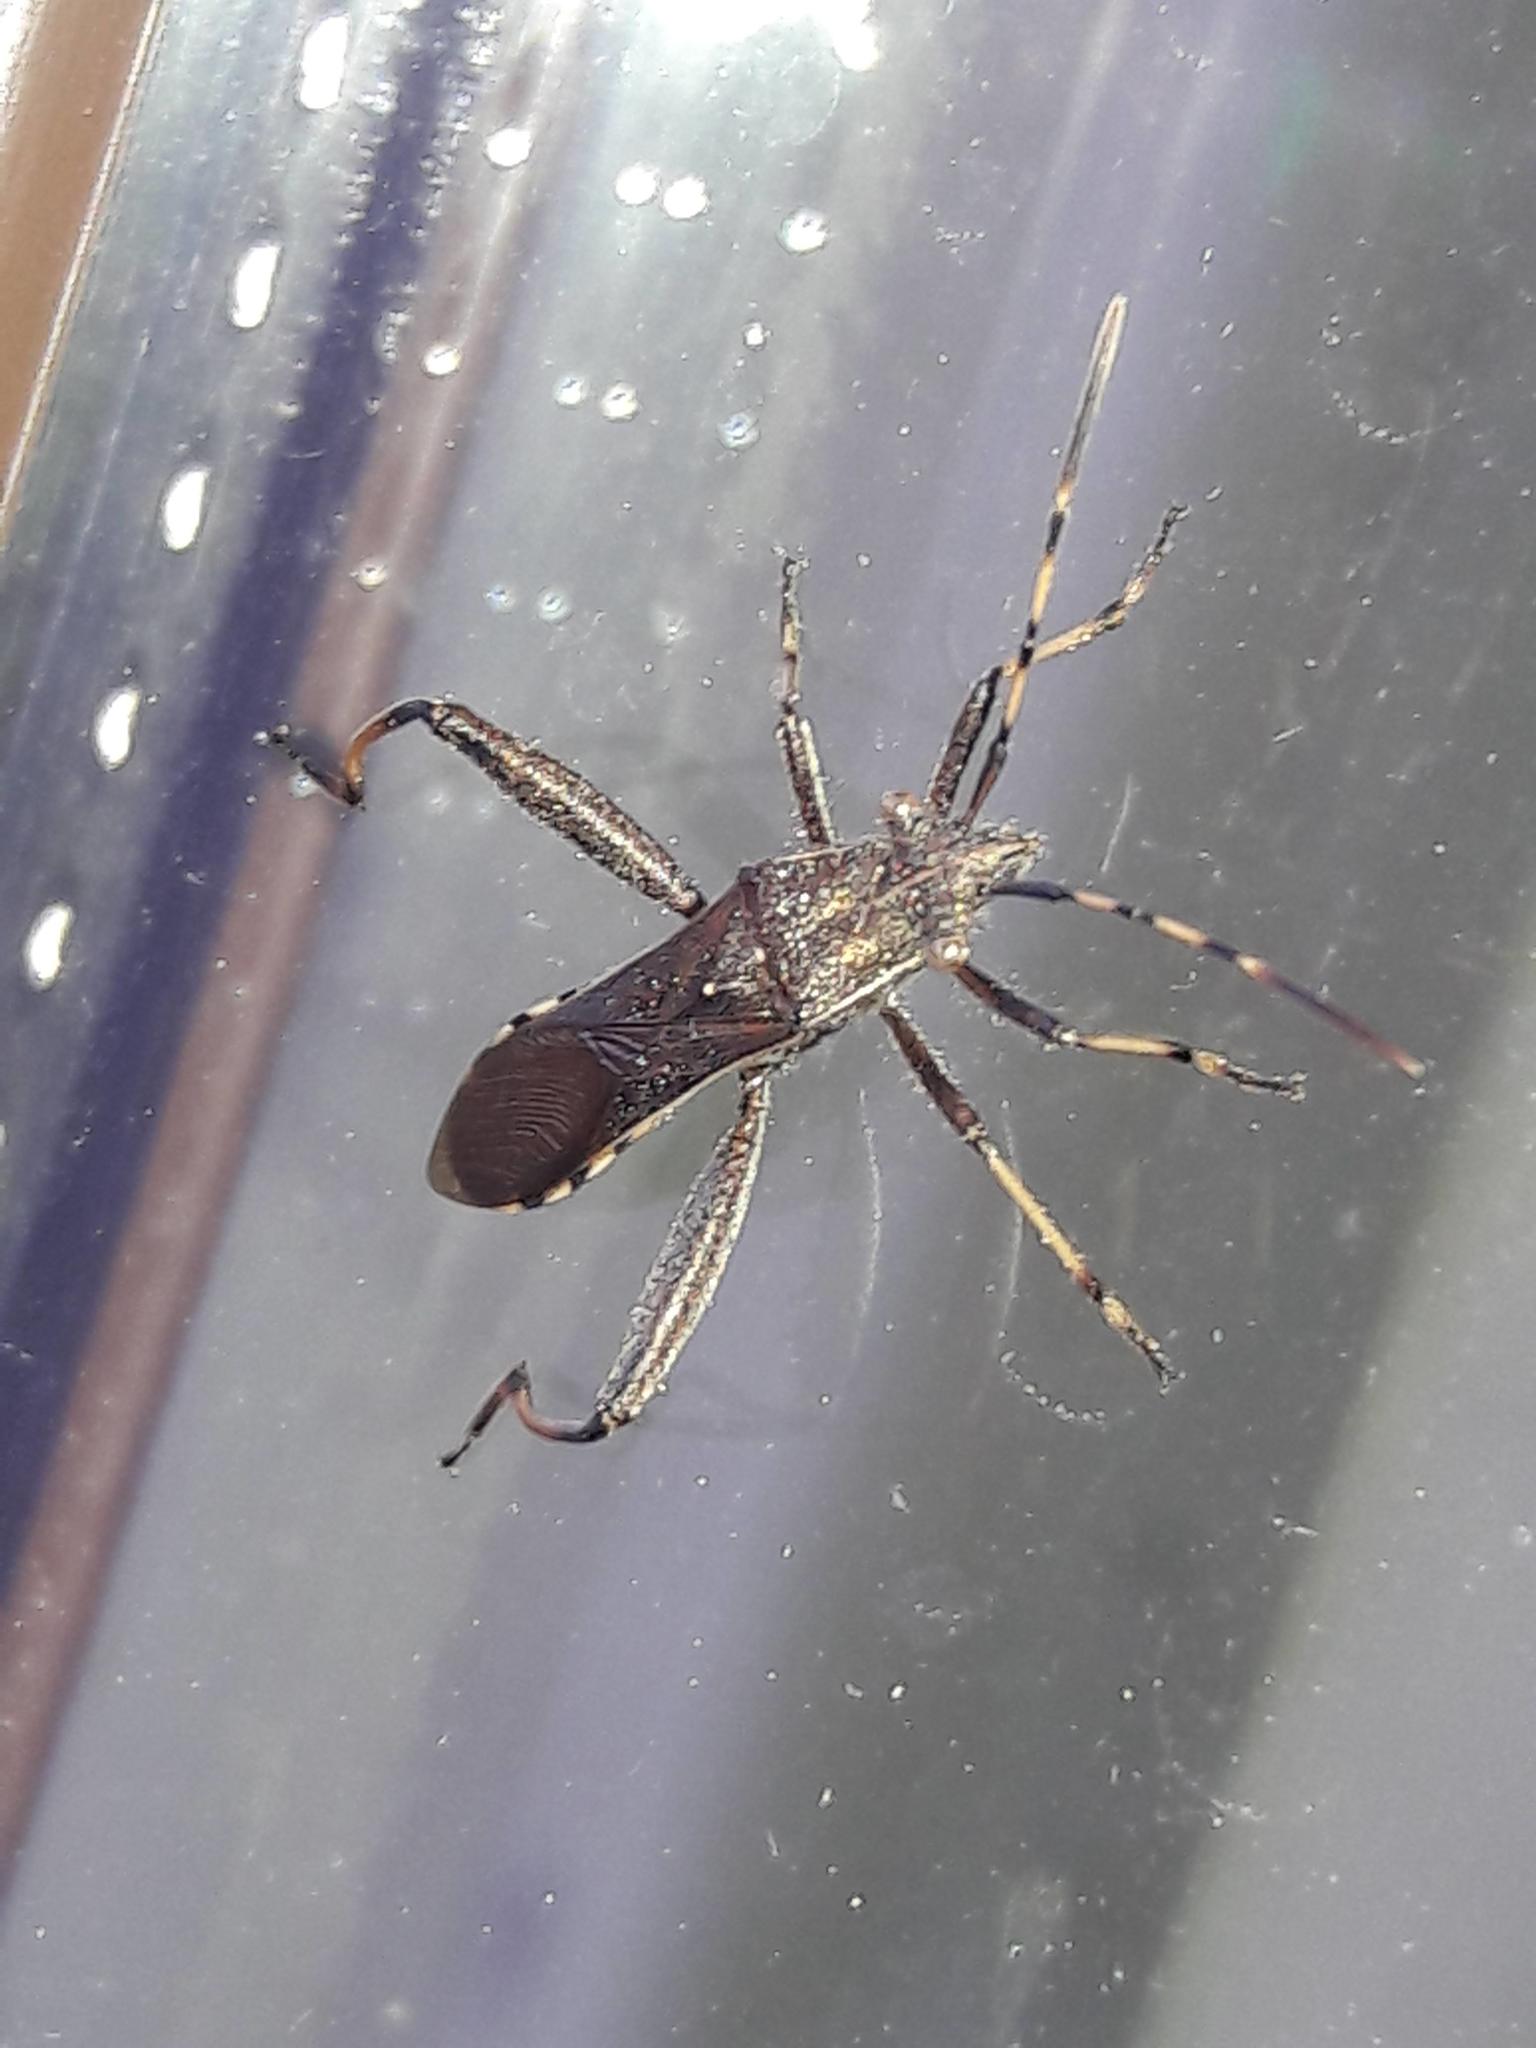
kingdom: Animalia
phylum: Arthropoda
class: Insecta
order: Hemiptera
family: Alydidae
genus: Camptopus
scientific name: Camptopus lateralis
